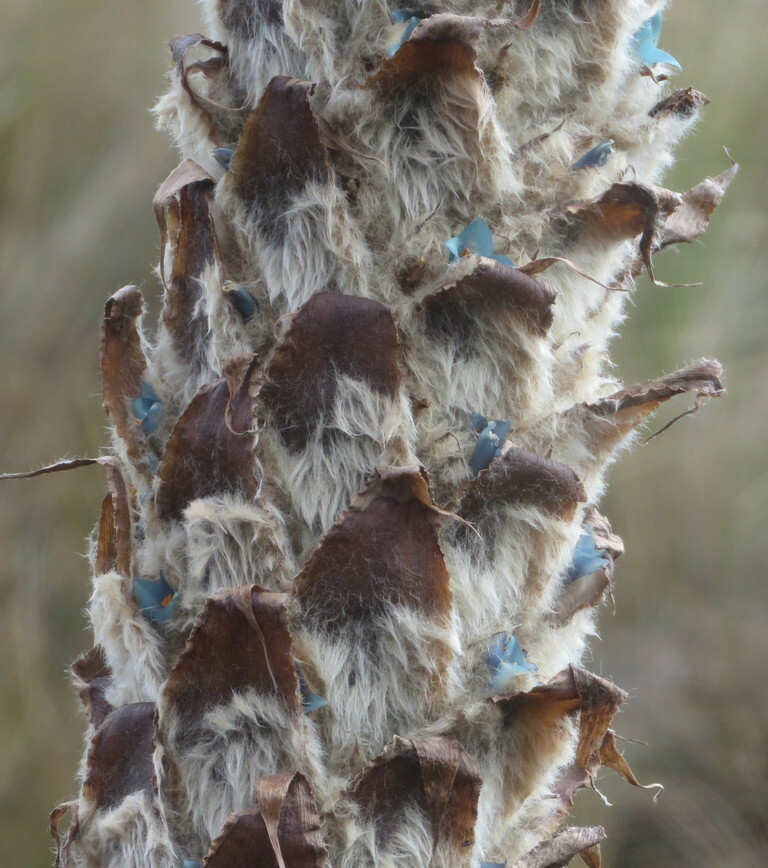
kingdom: Plantae
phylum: Tracheophyta
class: Liliopsida
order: Poales
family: Bromeliaceae
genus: Puya
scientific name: Puya clava-herculis
